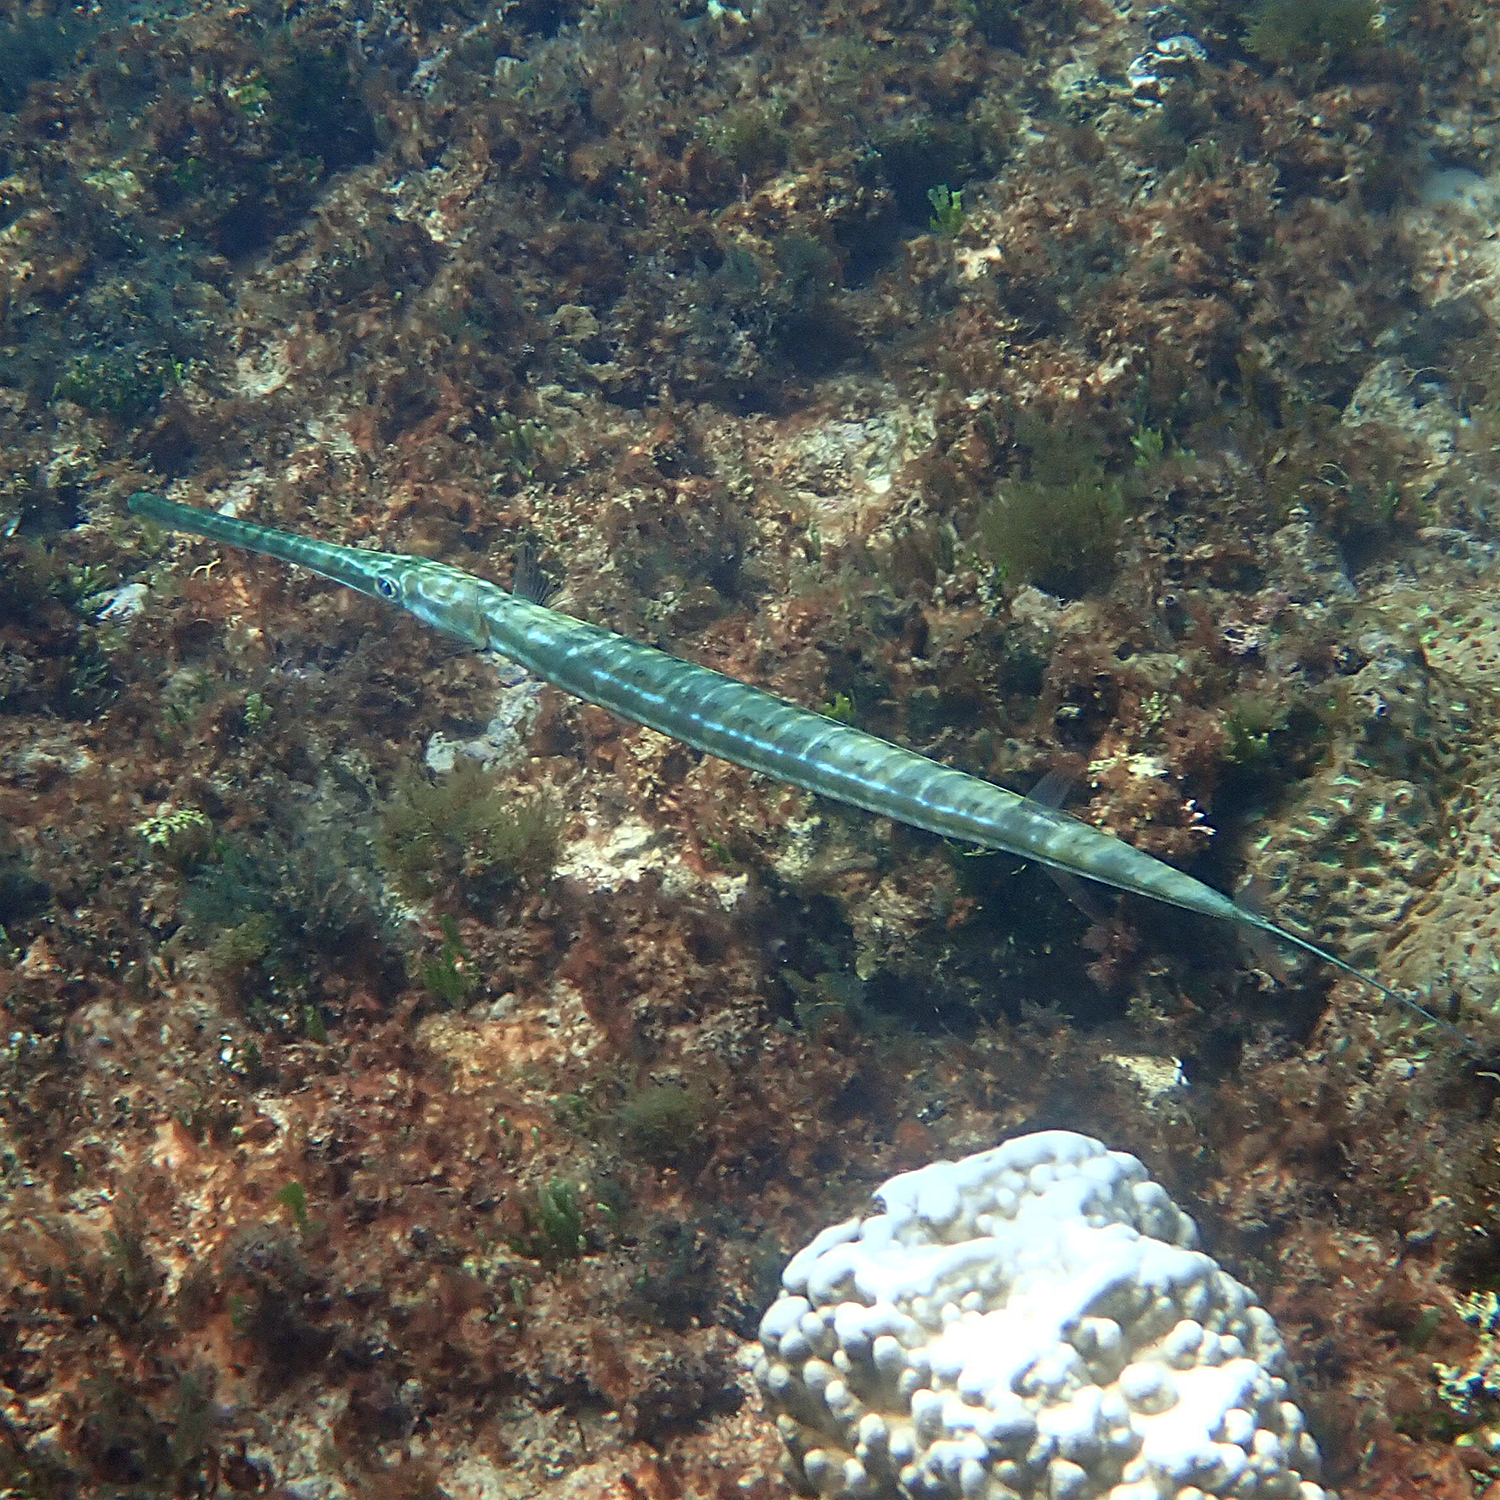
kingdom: Animalia
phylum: Chordata
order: Syngnathiformes
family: Fistulariidae
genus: Fistularia
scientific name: Fistularia commersonii
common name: Bluespotted cornetfish
